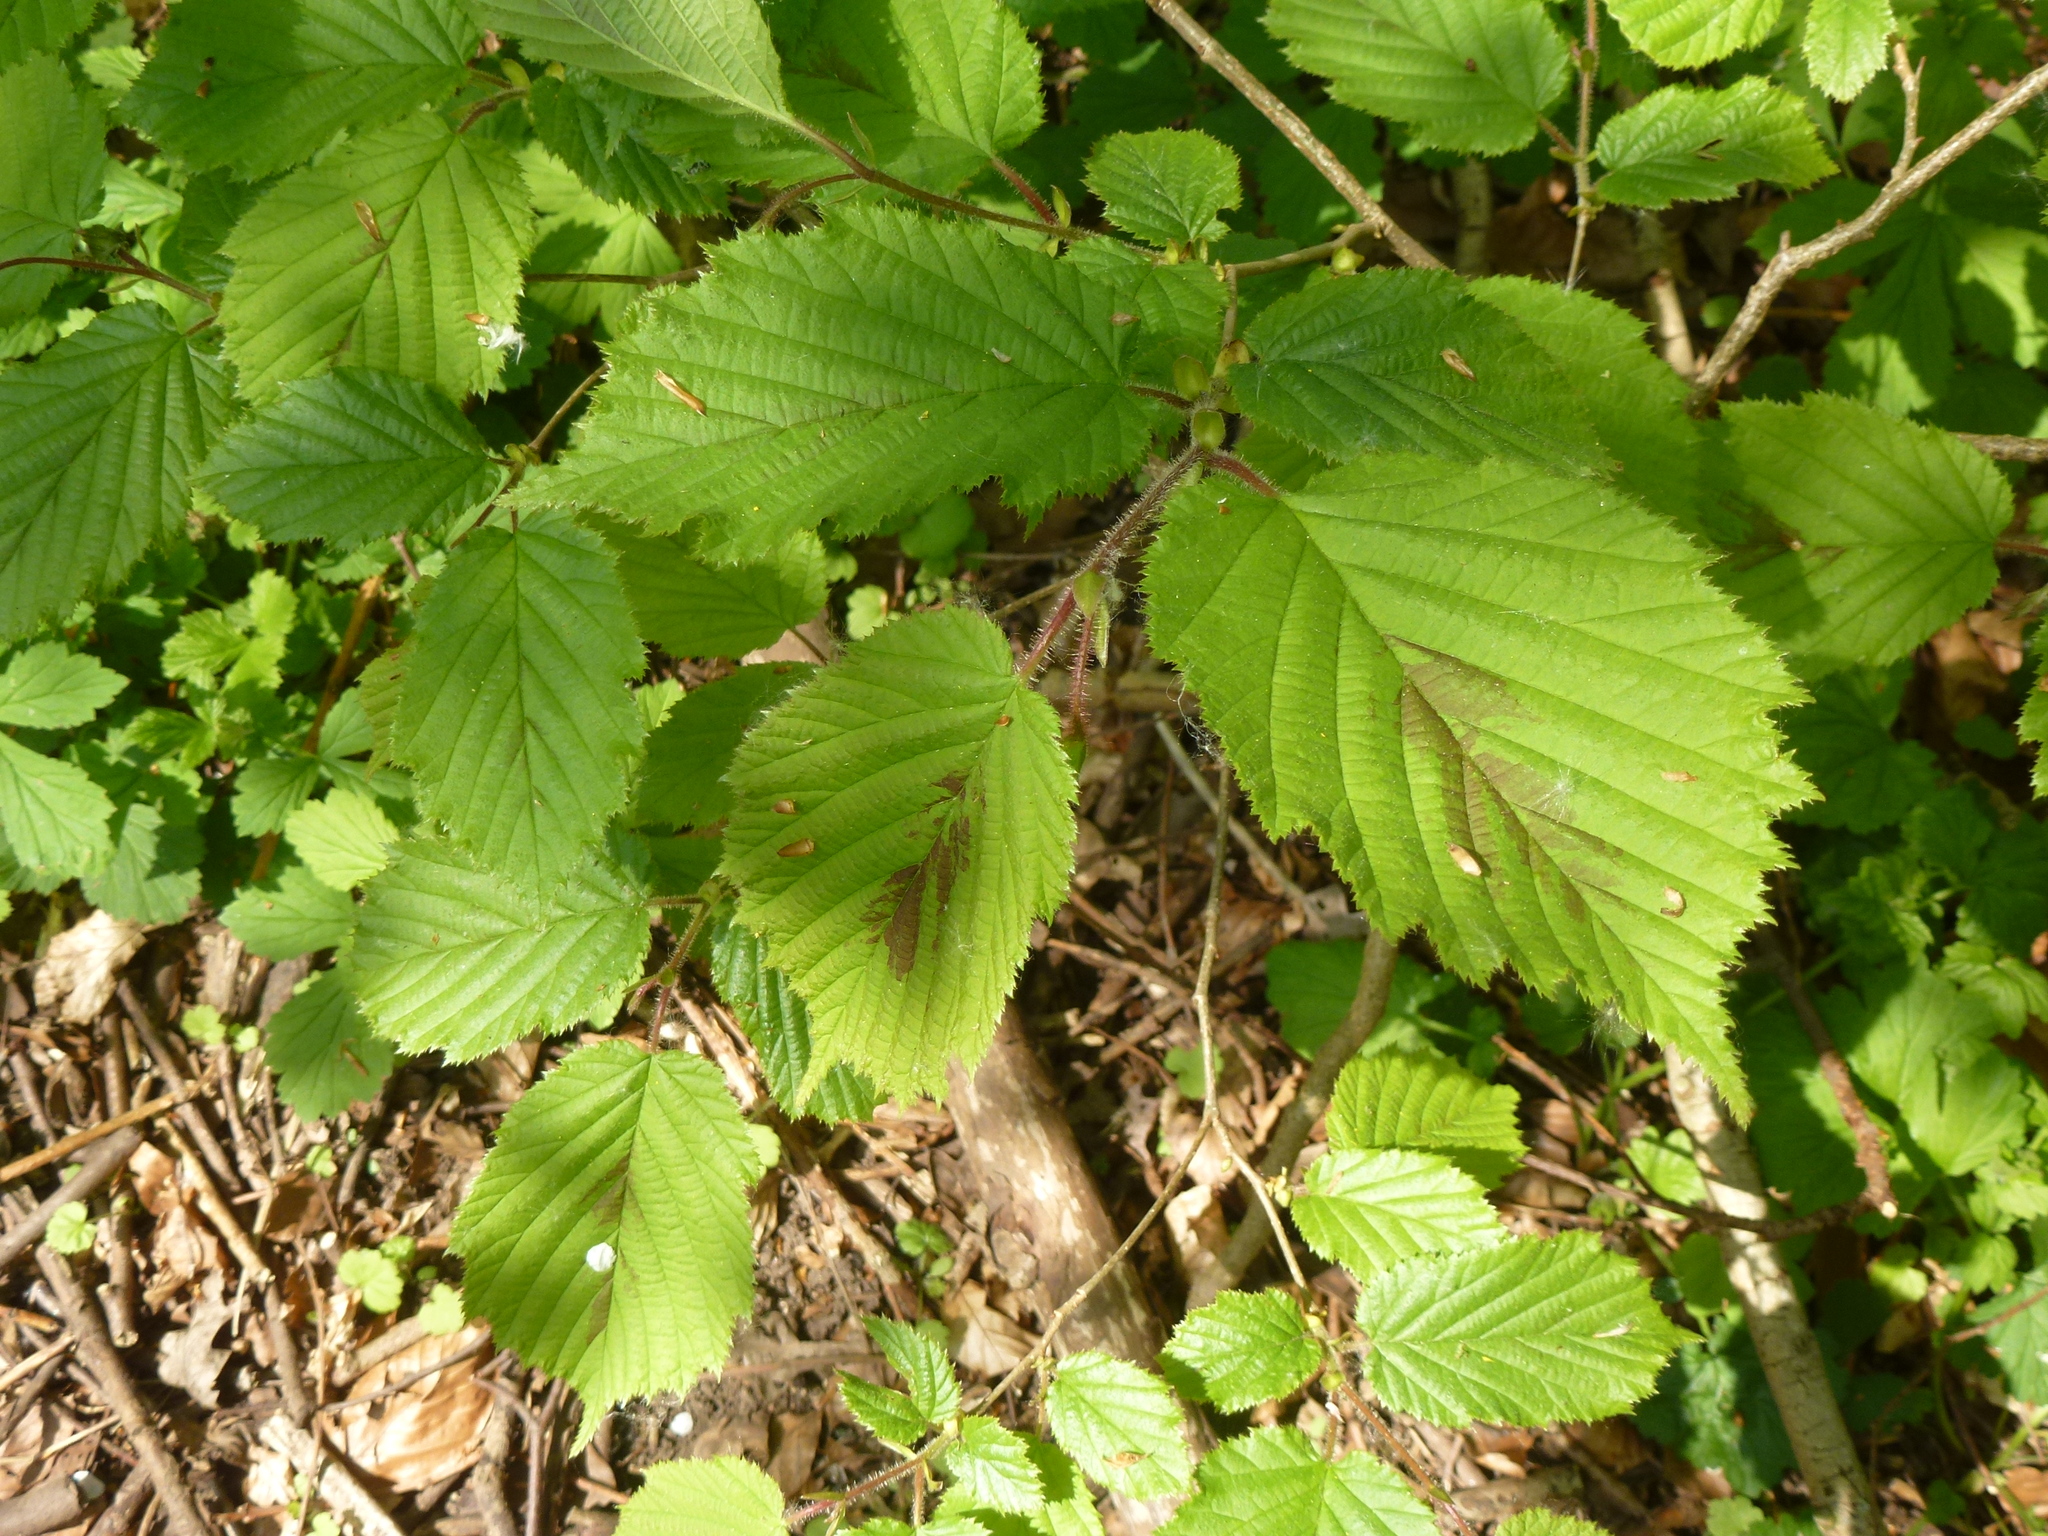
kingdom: Plantae
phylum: Tracheophyta
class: Magnoliopsida
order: Fagales
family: Betulaceae
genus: Corylus
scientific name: Corylus avellana
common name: European hazel
